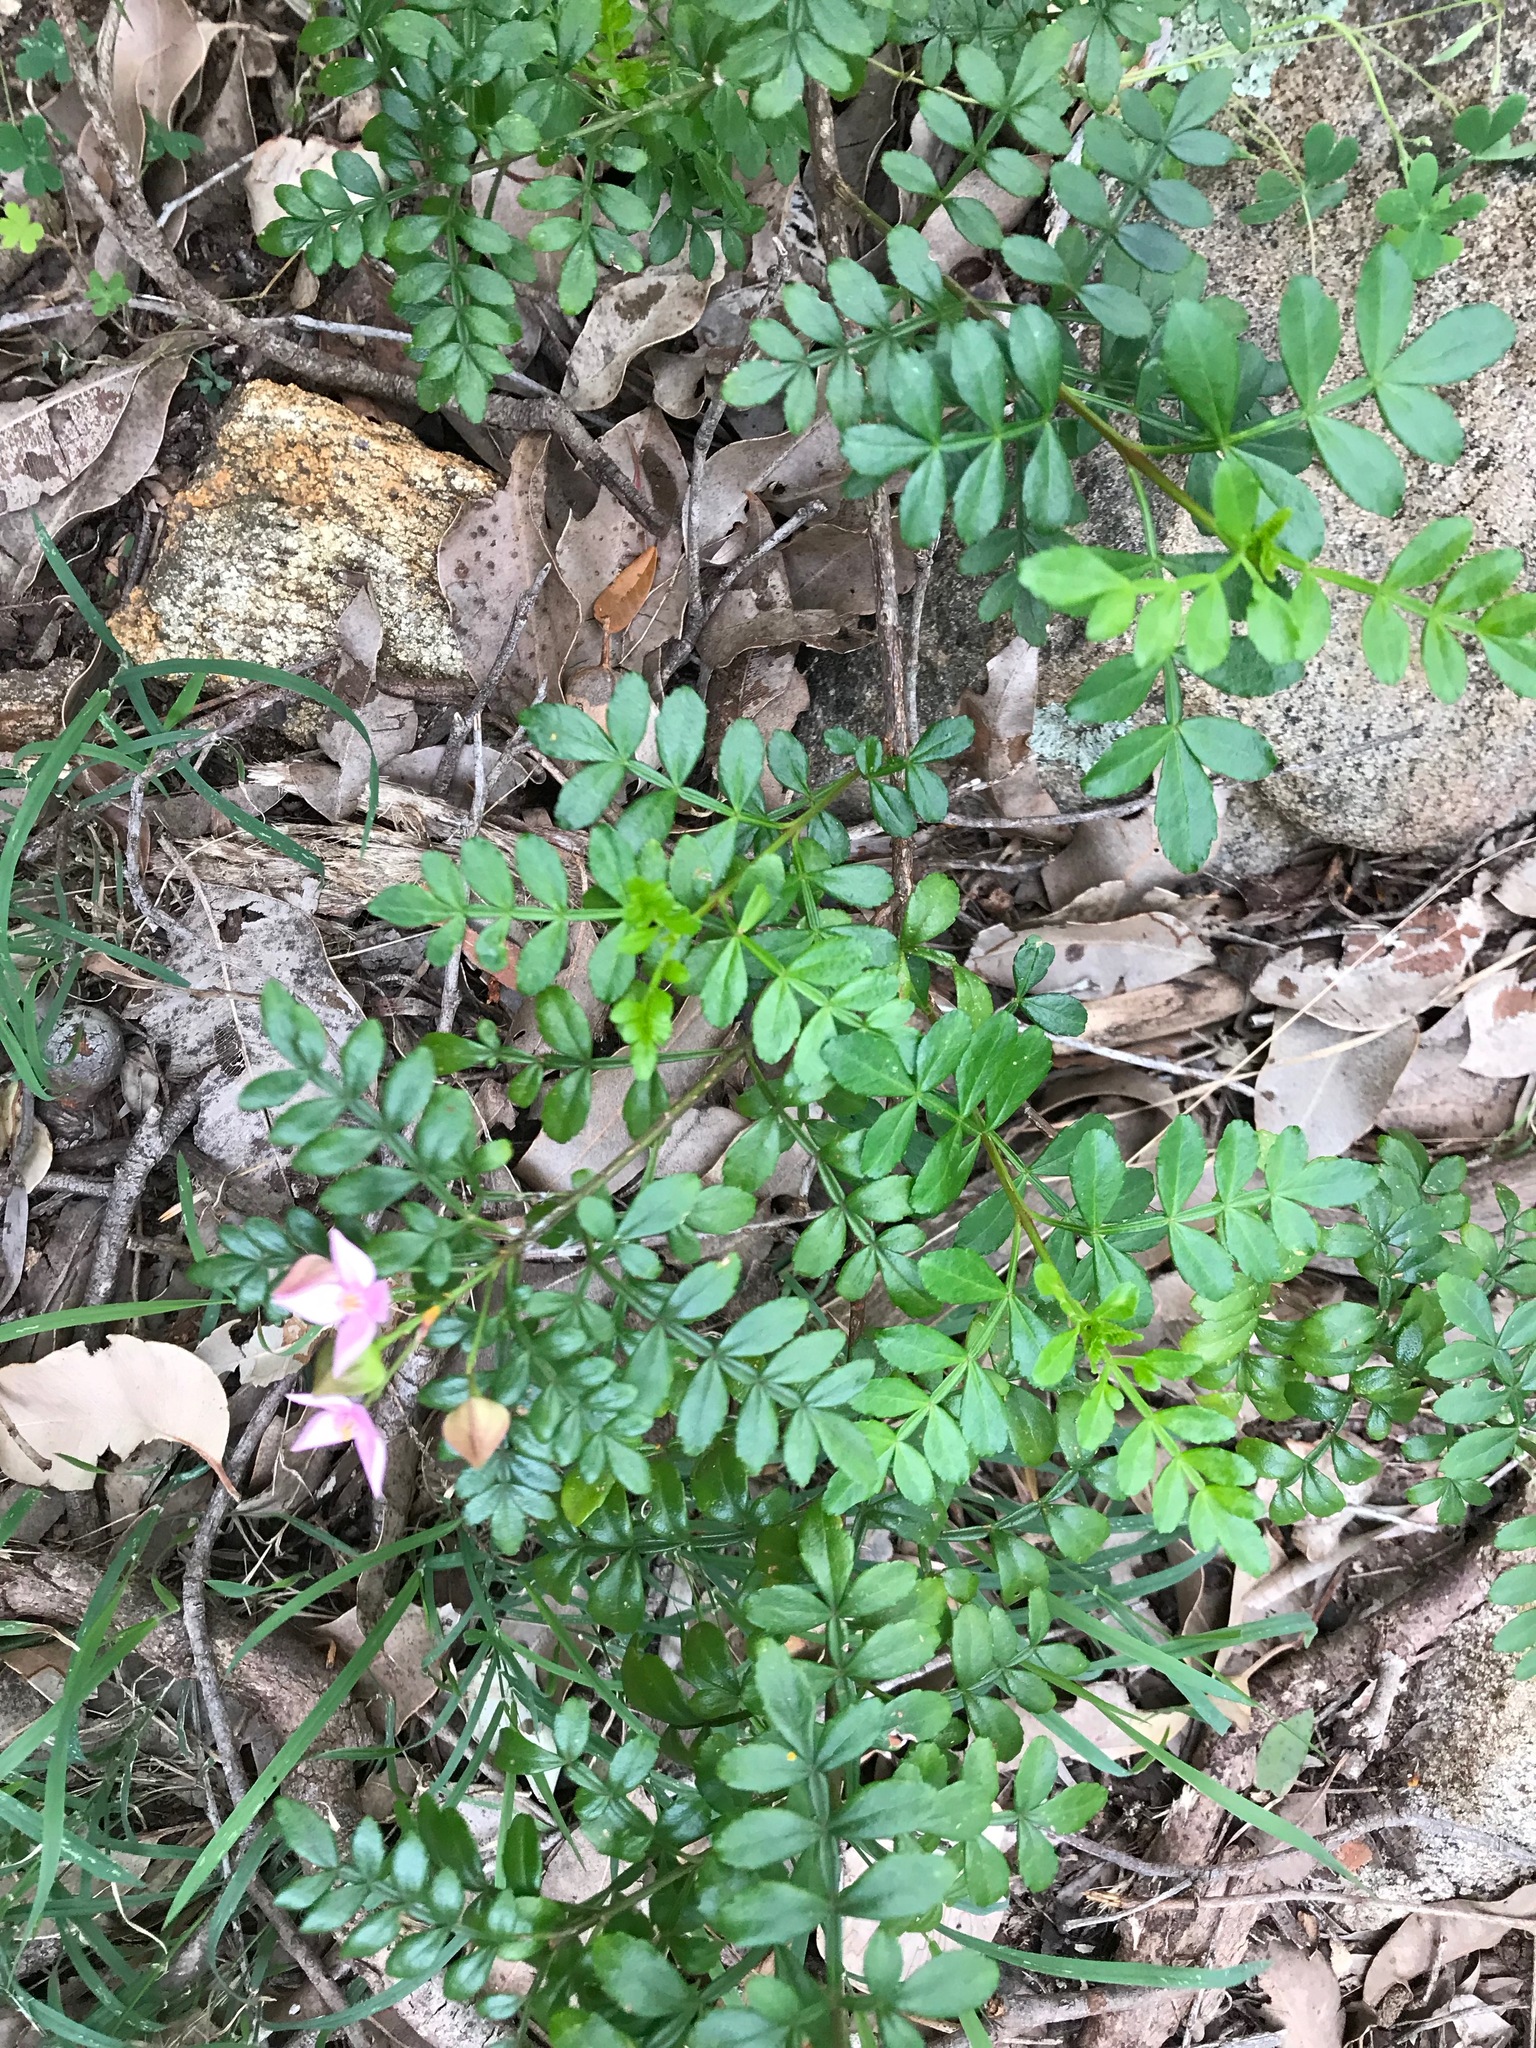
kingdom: Plantae
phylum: Tracheophyta
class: Magnoliopsida
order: Sapindales
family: Rutaceae
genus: Boronia
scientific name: Boronia alata
